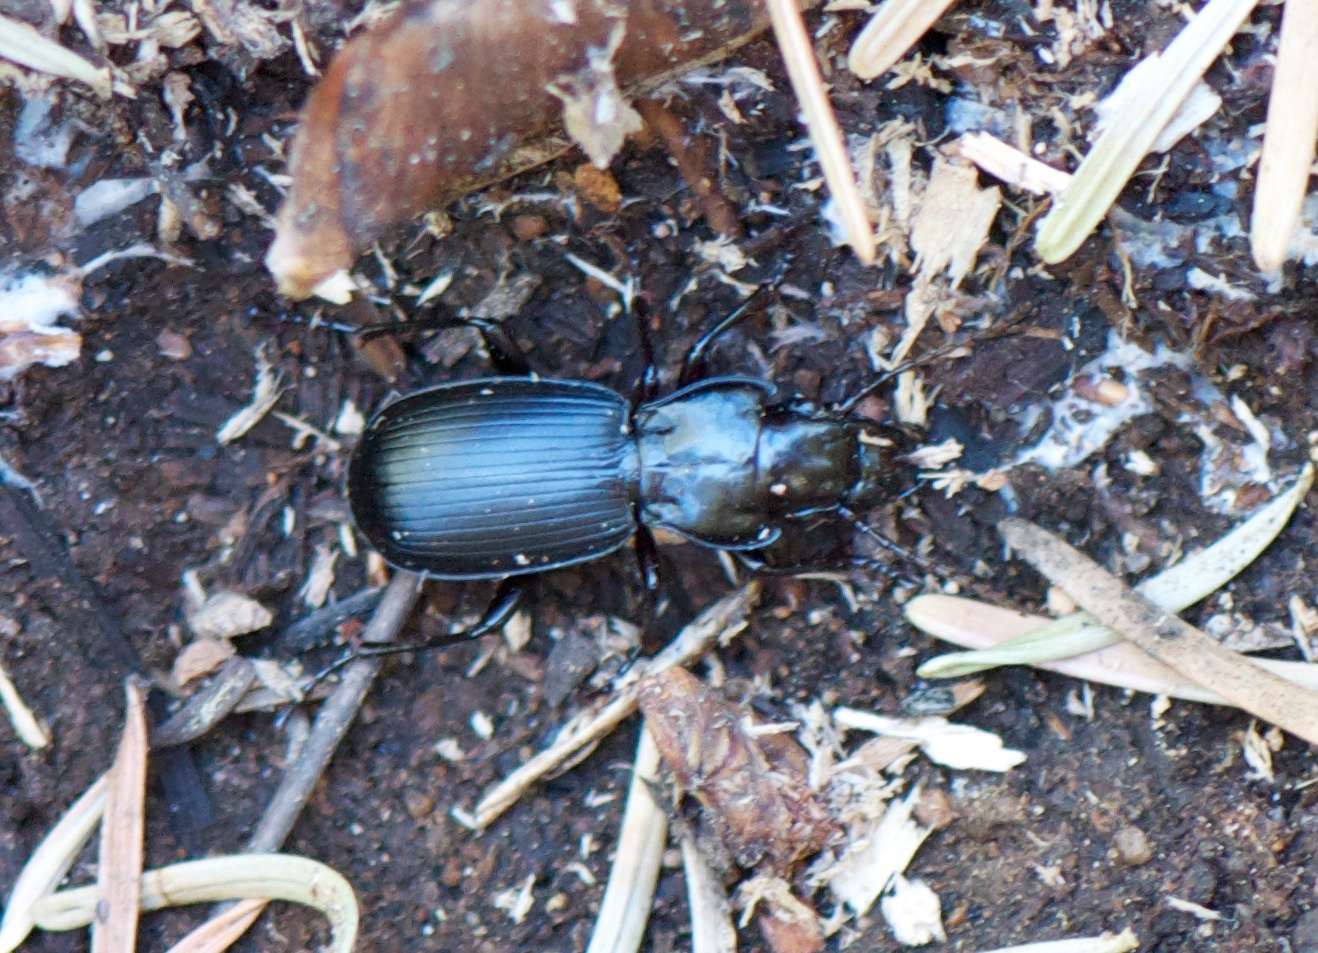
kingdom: Animalia
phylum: Arthropoda
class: Insecta
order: Coleoptera
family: Carabidae
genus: Pterostichus
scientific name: Pterostichus lama
